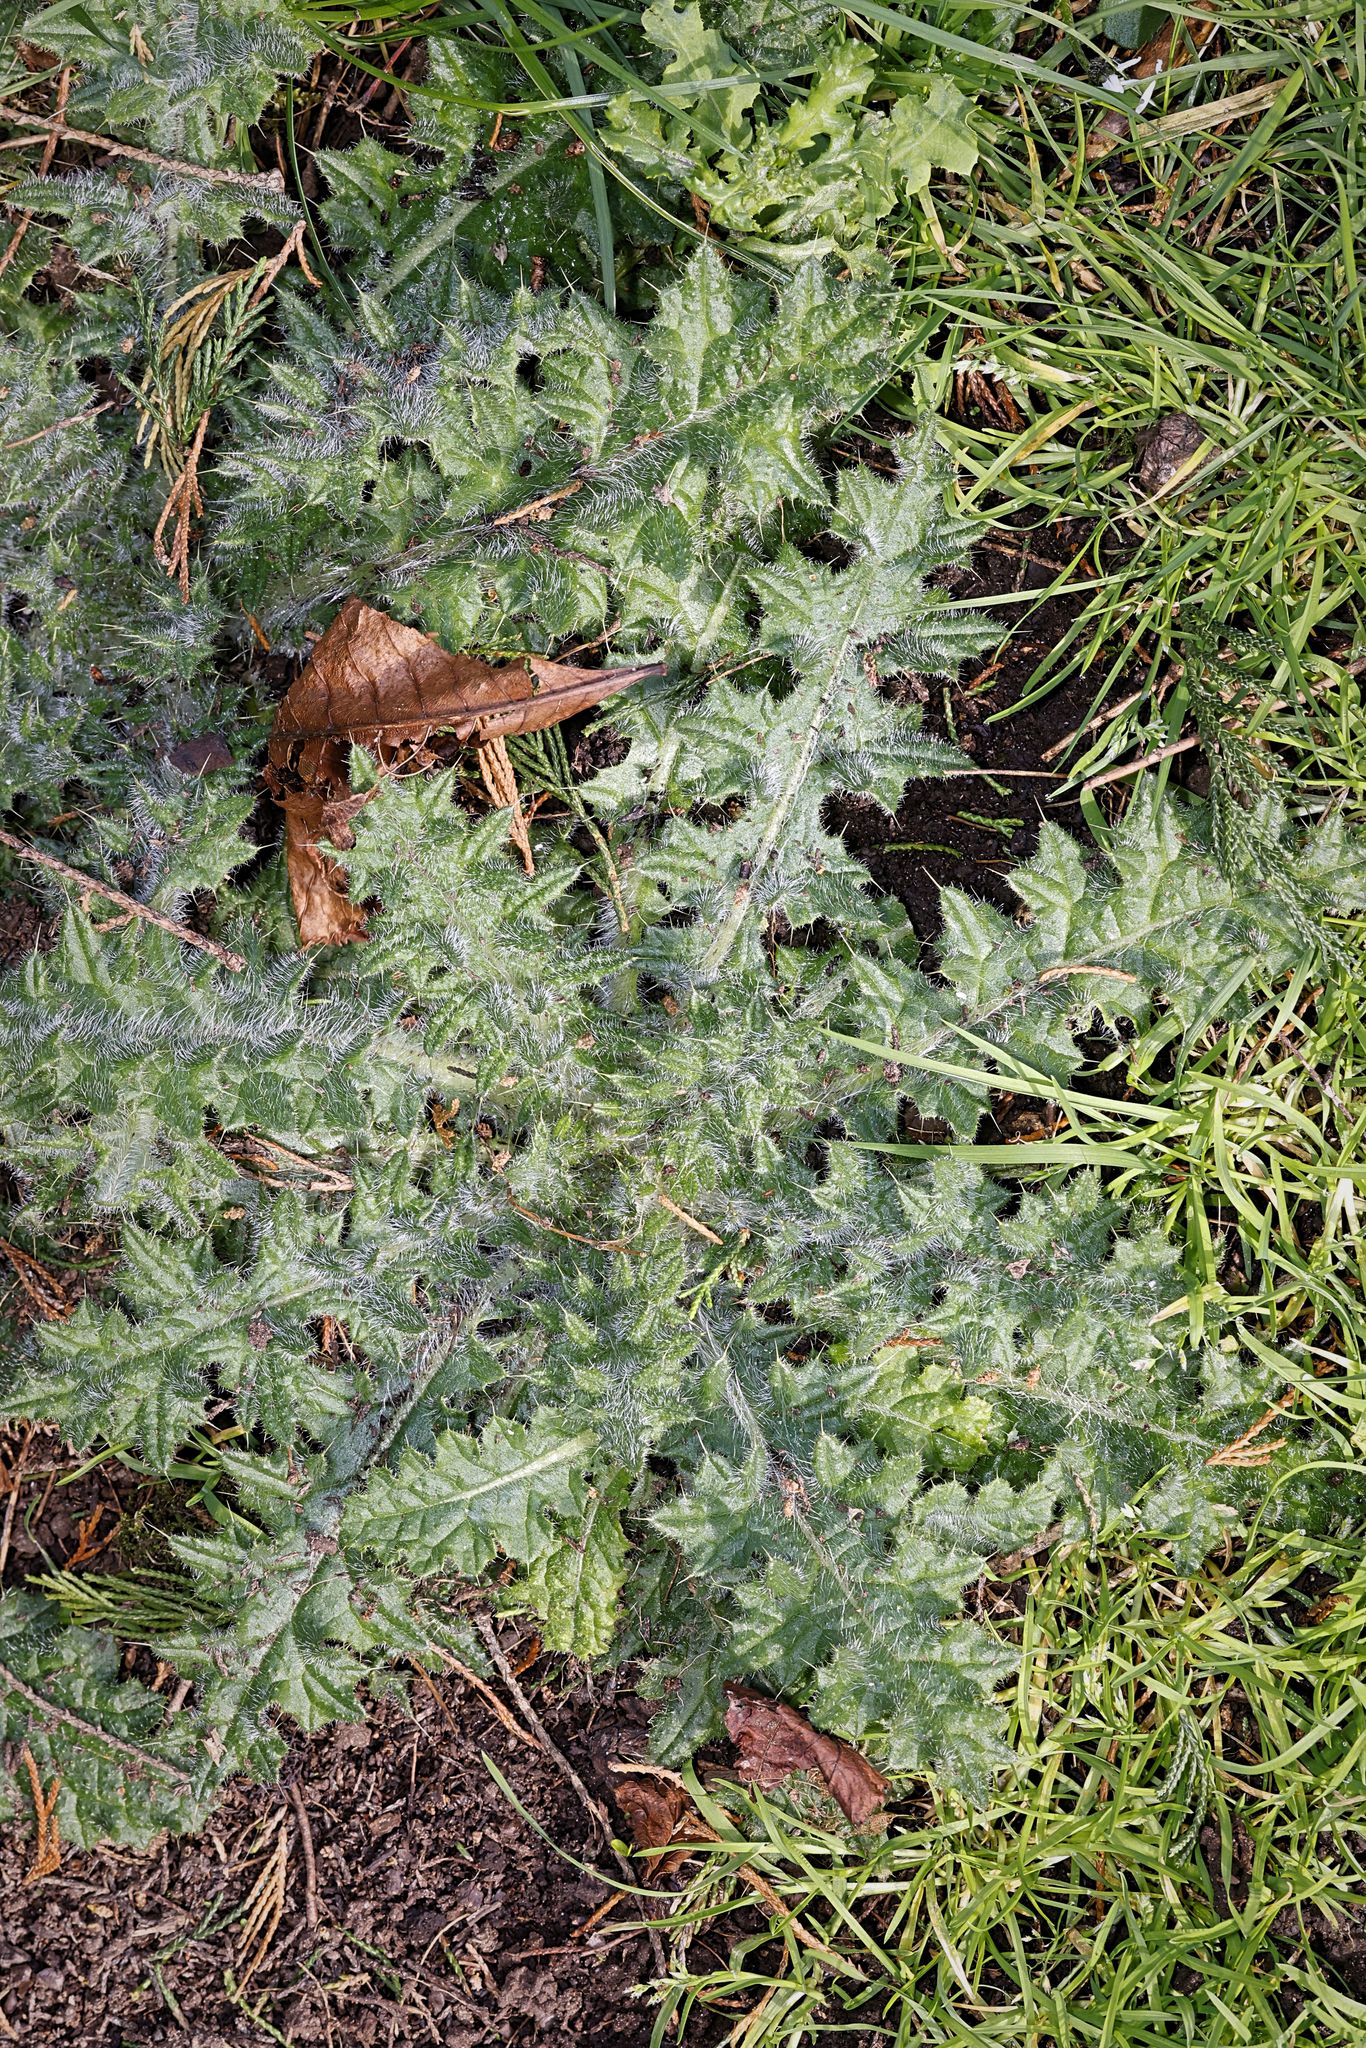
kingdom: Plantae
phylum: Tracheophyta
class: Magnoliopsida
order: Asterales
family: Asteraceae
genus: Cirsium
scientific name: Cirsium vulgare
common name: Bull thistle
